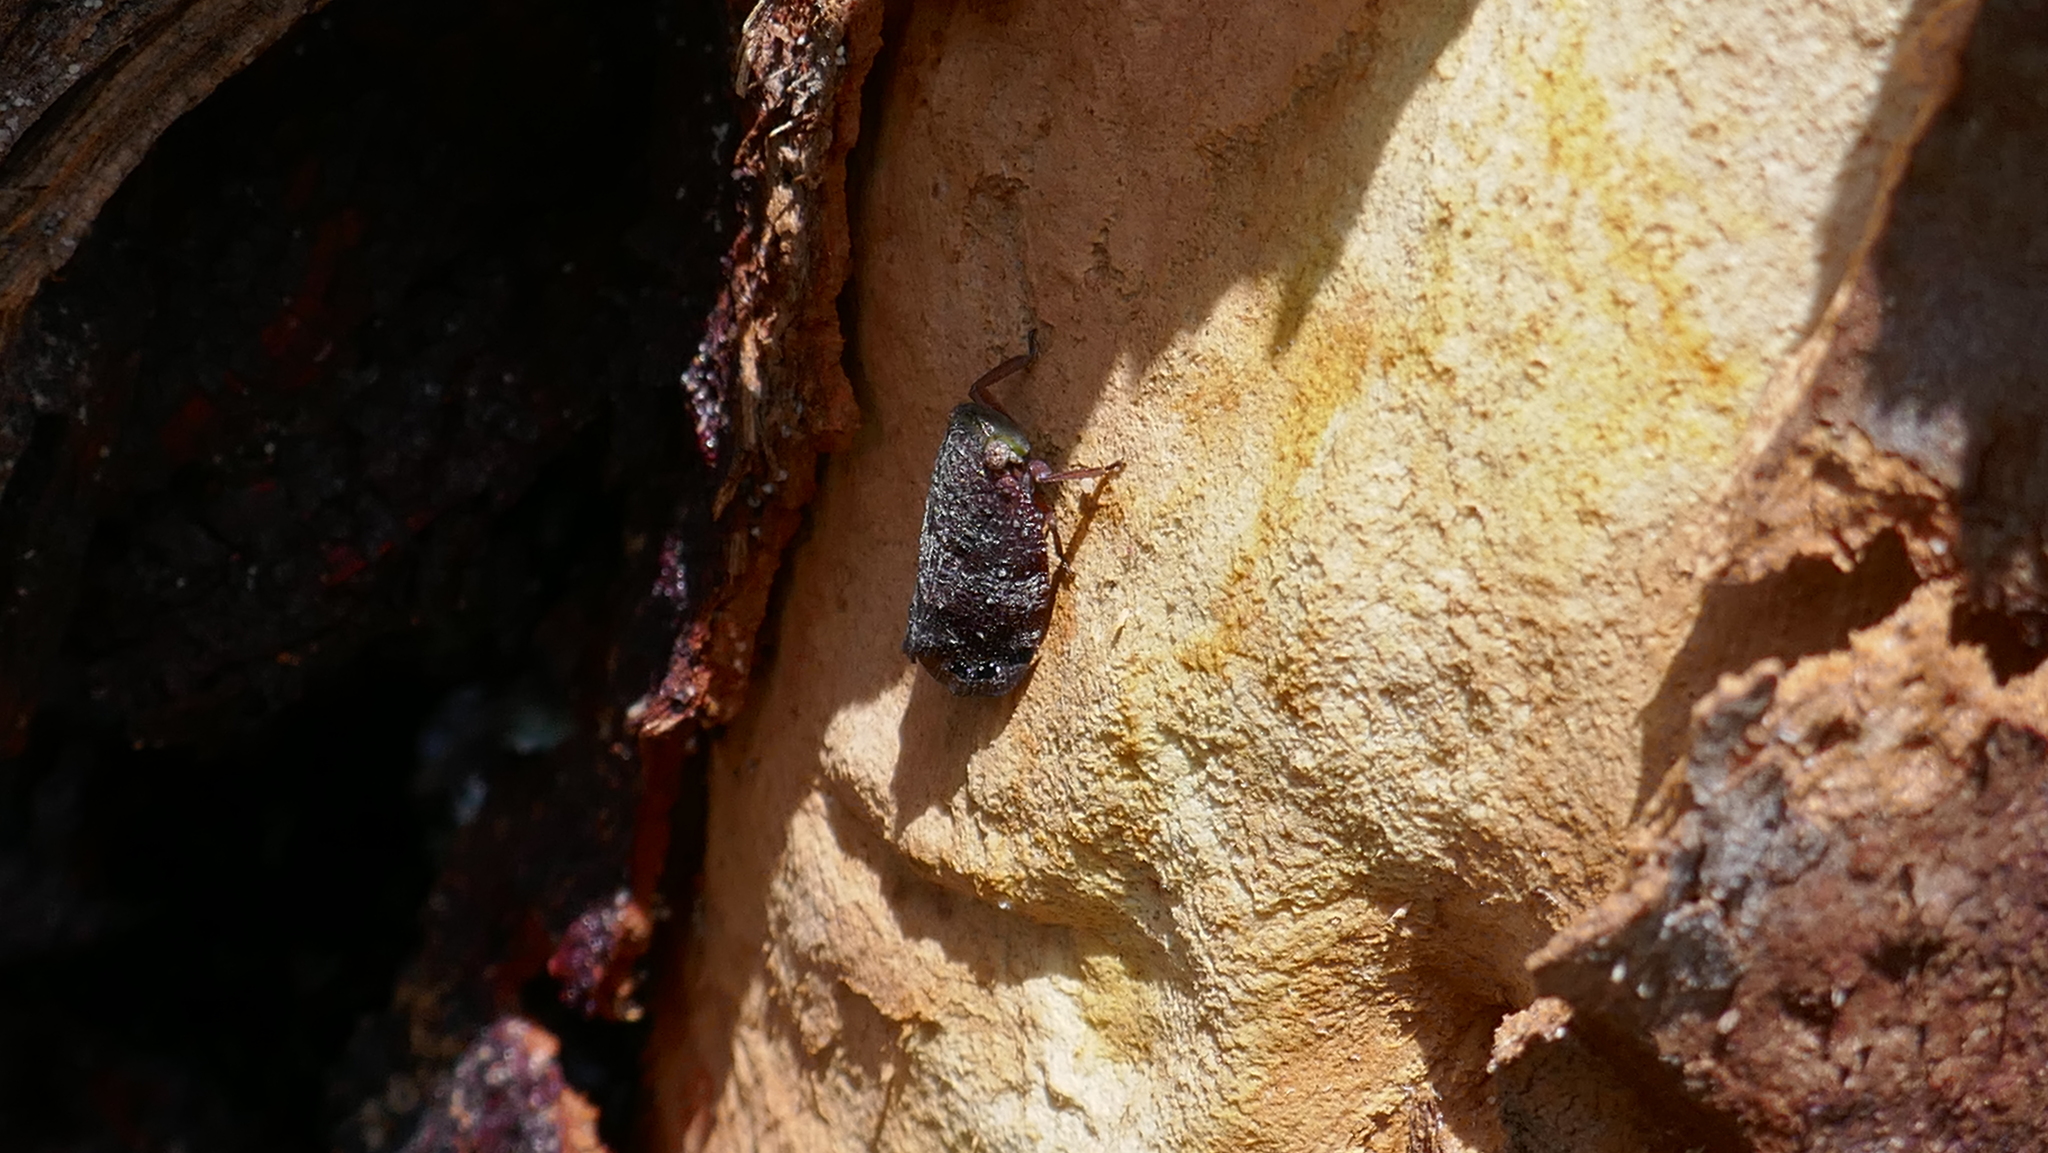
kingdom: Animalia
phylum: Arthropoda
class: Insecta
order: Hemiptera
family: Eurybrachidae
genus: Platybrachys
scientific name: Platybrachys decemmacula
